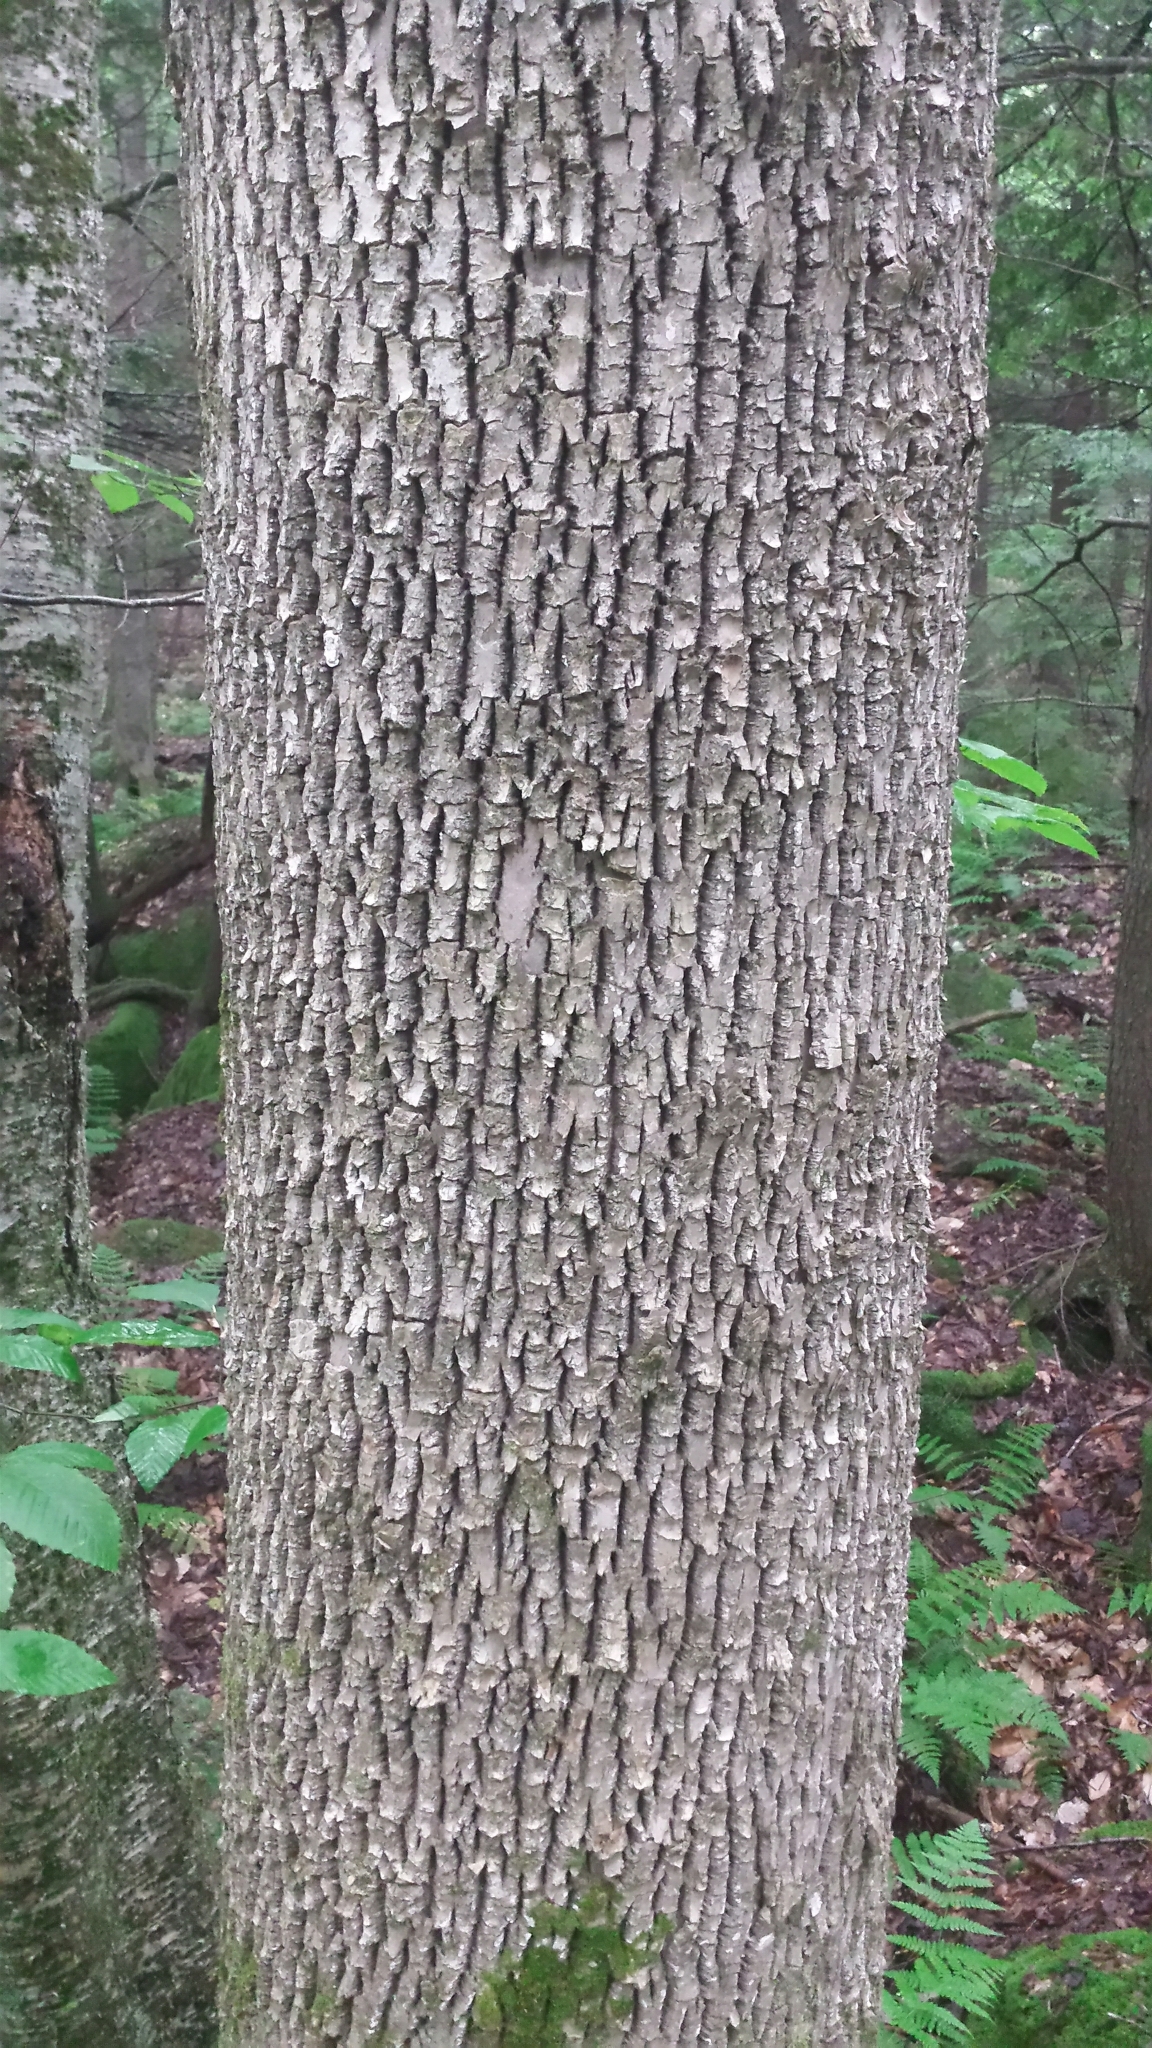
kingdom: Plantae
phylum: Tracheophyta
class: Magnoliopsida
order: Lamiales
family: Oleaceae
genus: Fraxinus
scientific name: Fraxinus americana
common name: White ash
